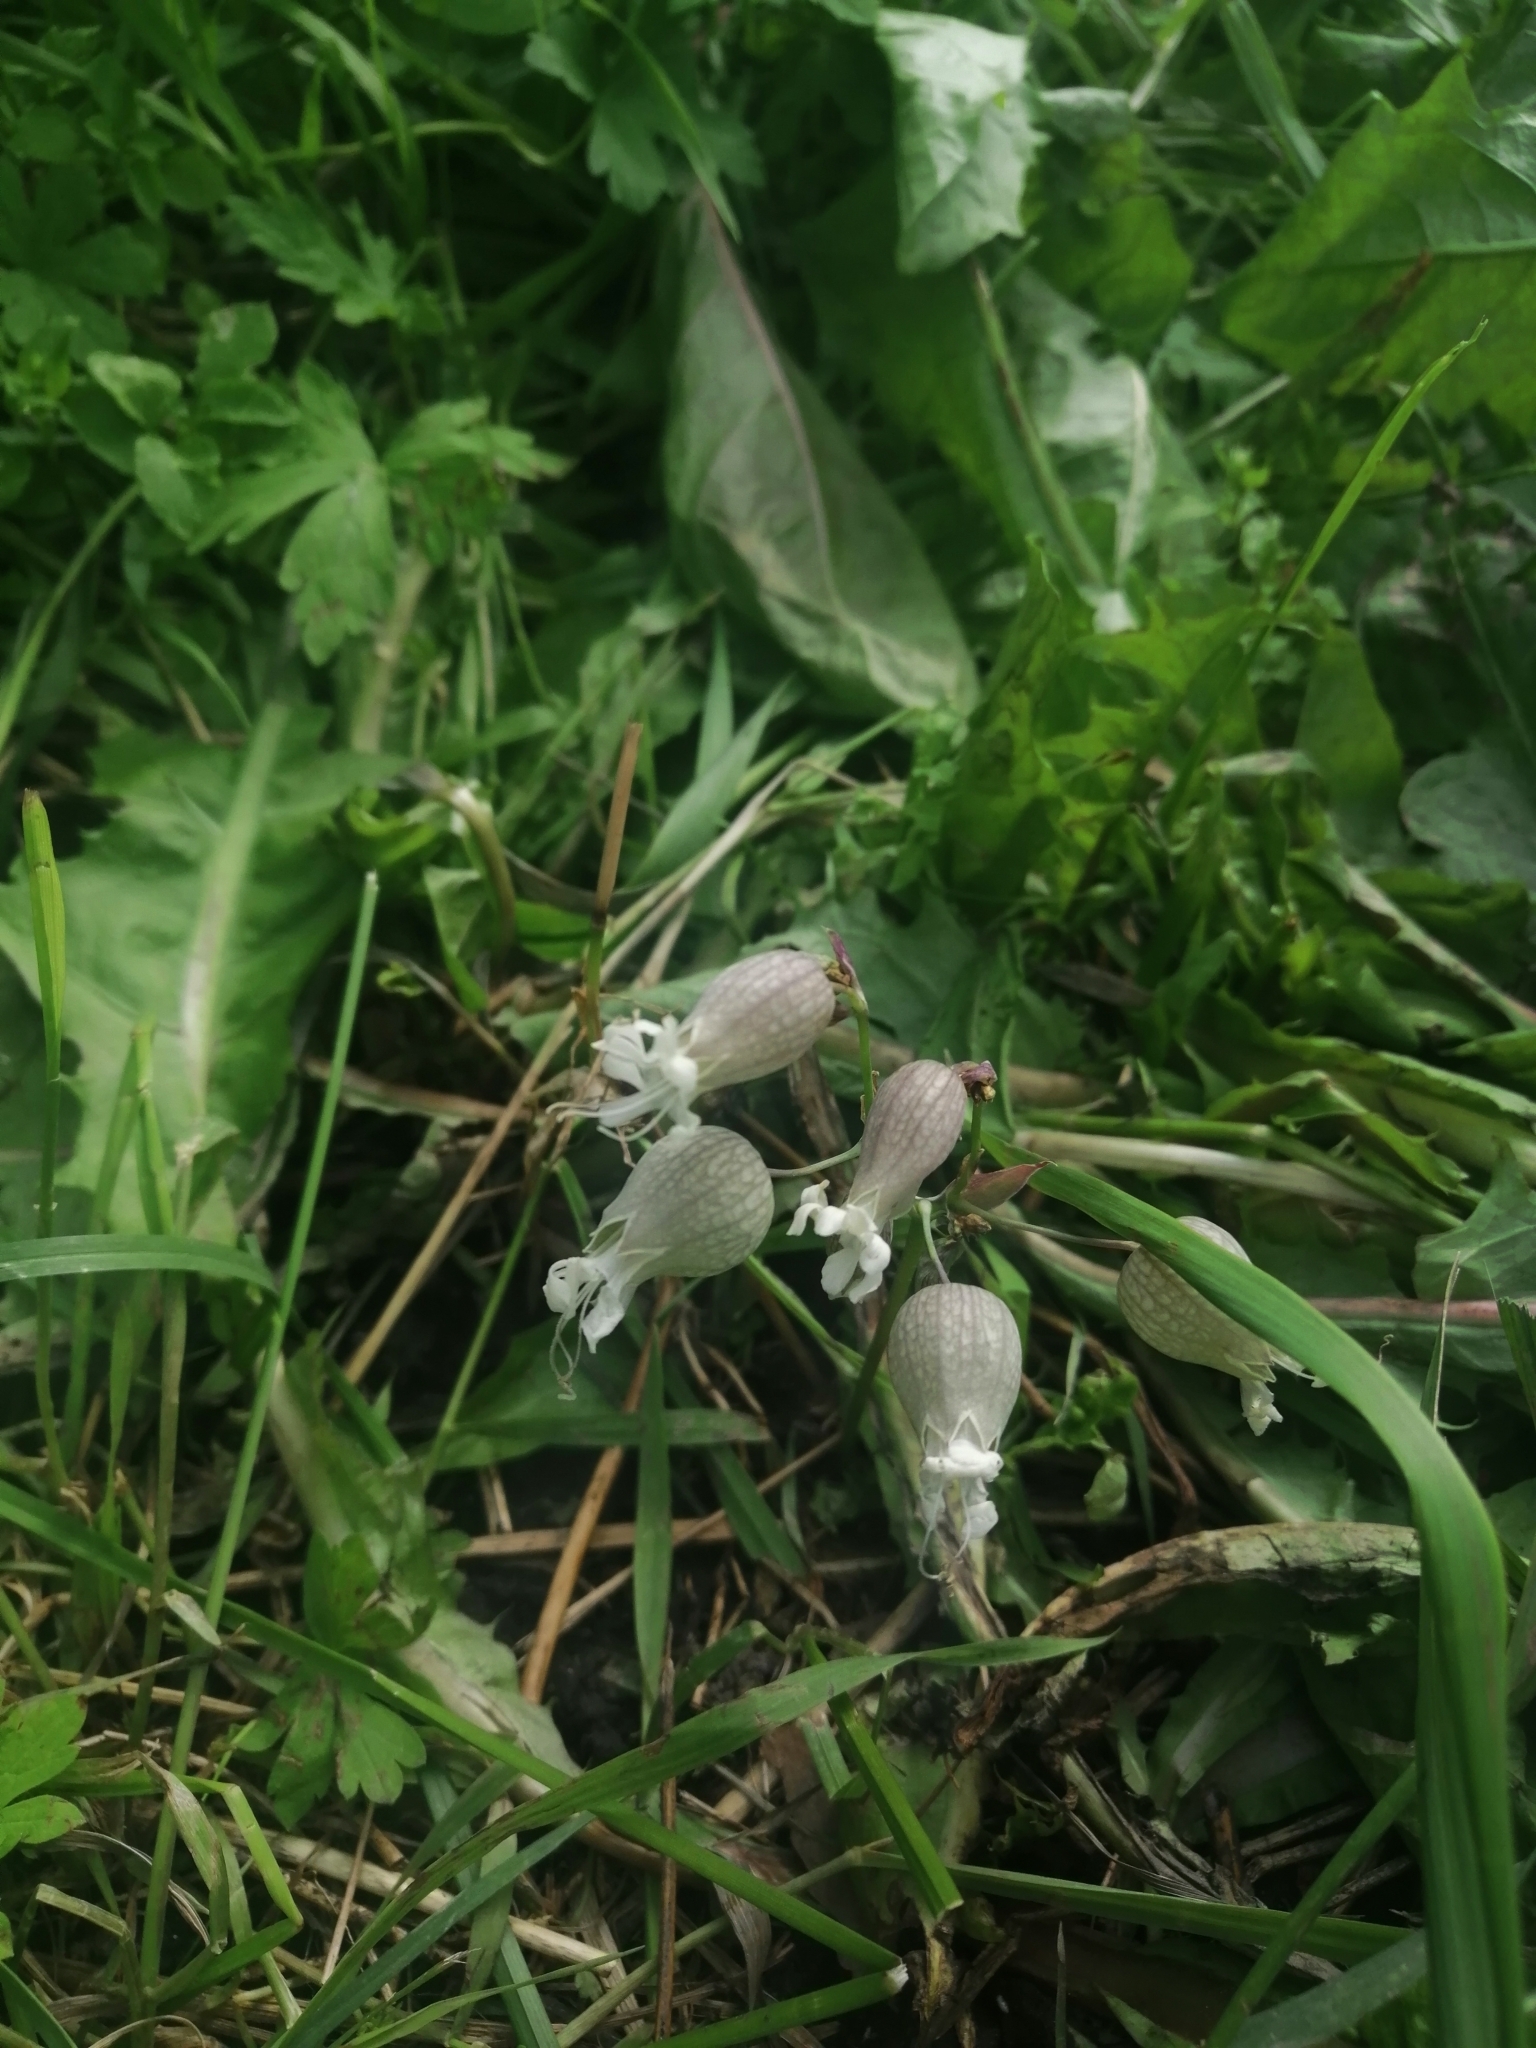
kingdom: Plantae
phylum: Tracheophyta
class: Magnoliopsida
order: Caryophyllales
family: Caryophyllaceae
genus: Silene
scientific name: Silene vulgaris
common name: Bladder campion
